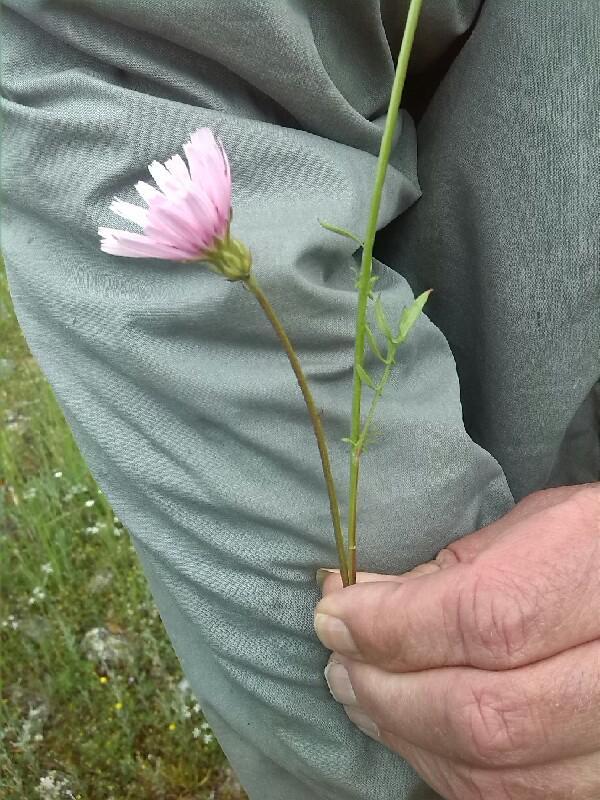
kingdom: Plantae
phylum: Tracheophyta
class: Magnoliopsida
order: Asterales
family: Asteraceae
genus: Crepis
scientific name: Crepis rubra
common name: Pink hawk's-beard
